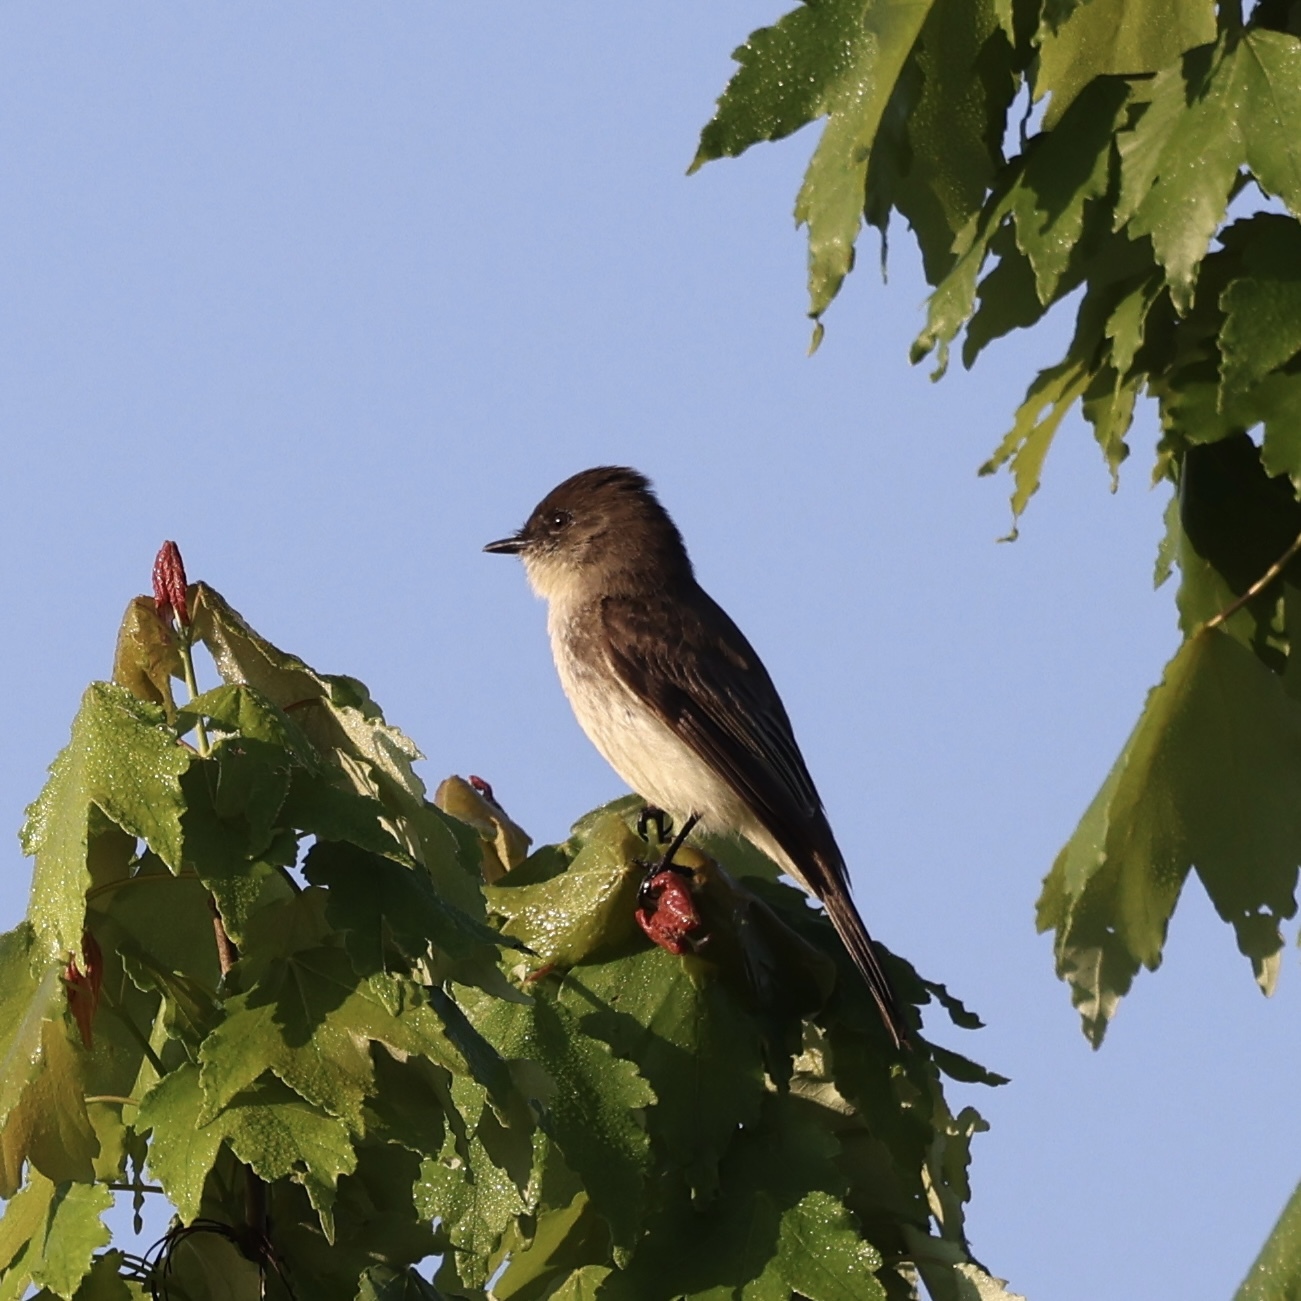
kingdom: Animalia
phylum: Chordata
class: Aves
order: Passeriformes
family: Tyrannidae
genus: Sayornis
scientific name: Sayornis phoebe
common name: Eastern phoebe
